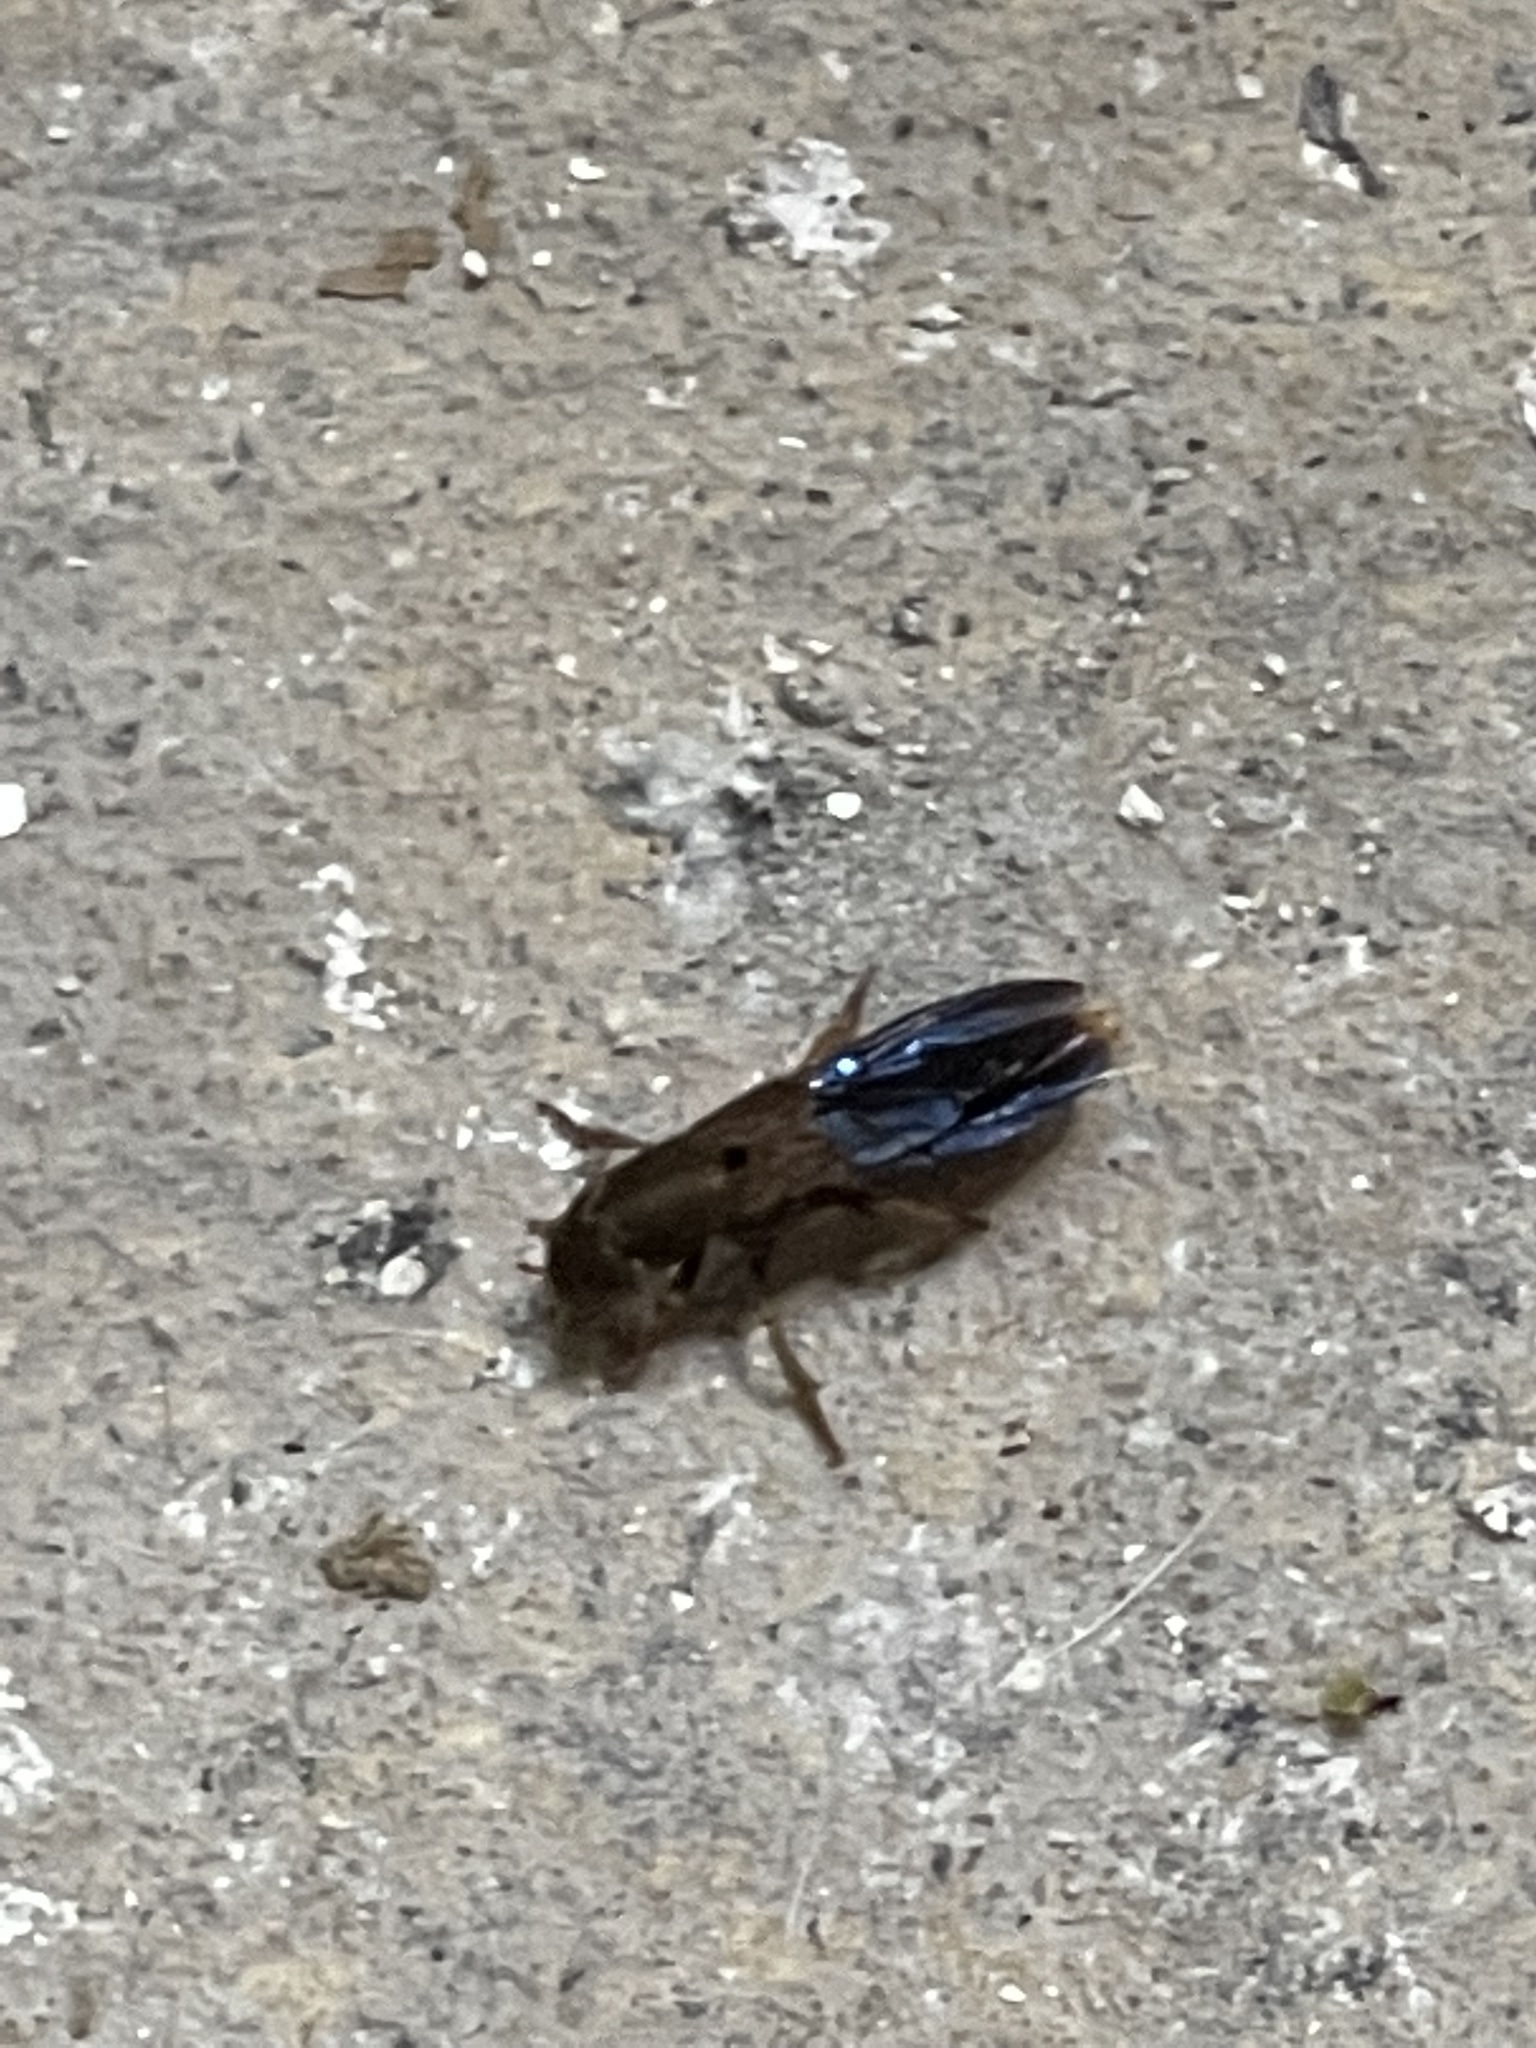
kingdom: Animalia
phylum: Arthropoda
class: Insecta
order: Coleoptera
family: Staphylinidae
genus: Platydracus
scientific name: Platydracus maculosus
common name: Brown rove beetle
